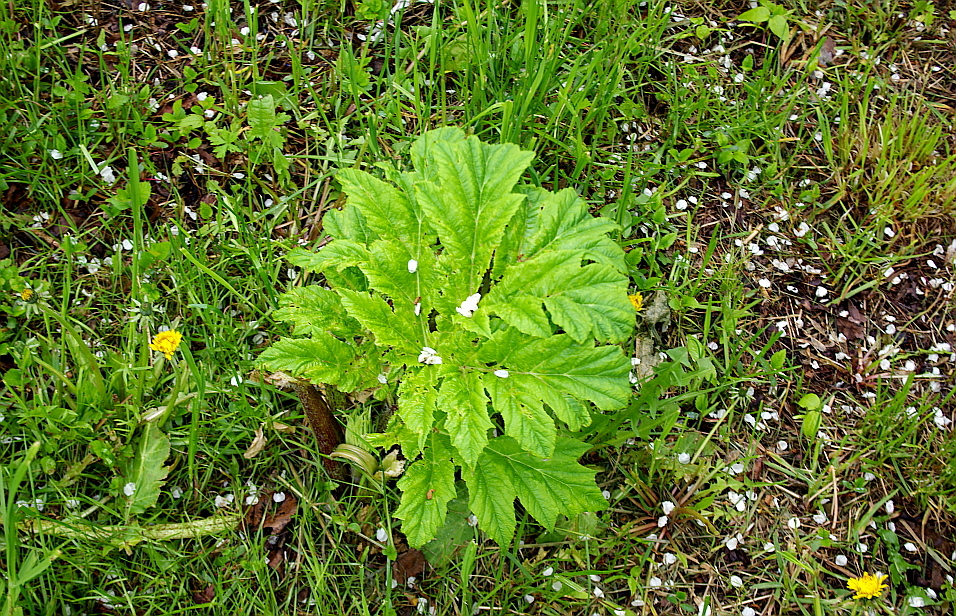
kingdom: Plantae
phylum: Tracheophyta
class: Magnoliopsida
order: Apiales
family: Apiaceae
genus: Heracleum
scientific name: Heracleum sosnowskyi
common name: Sosnowsky's hogweed
